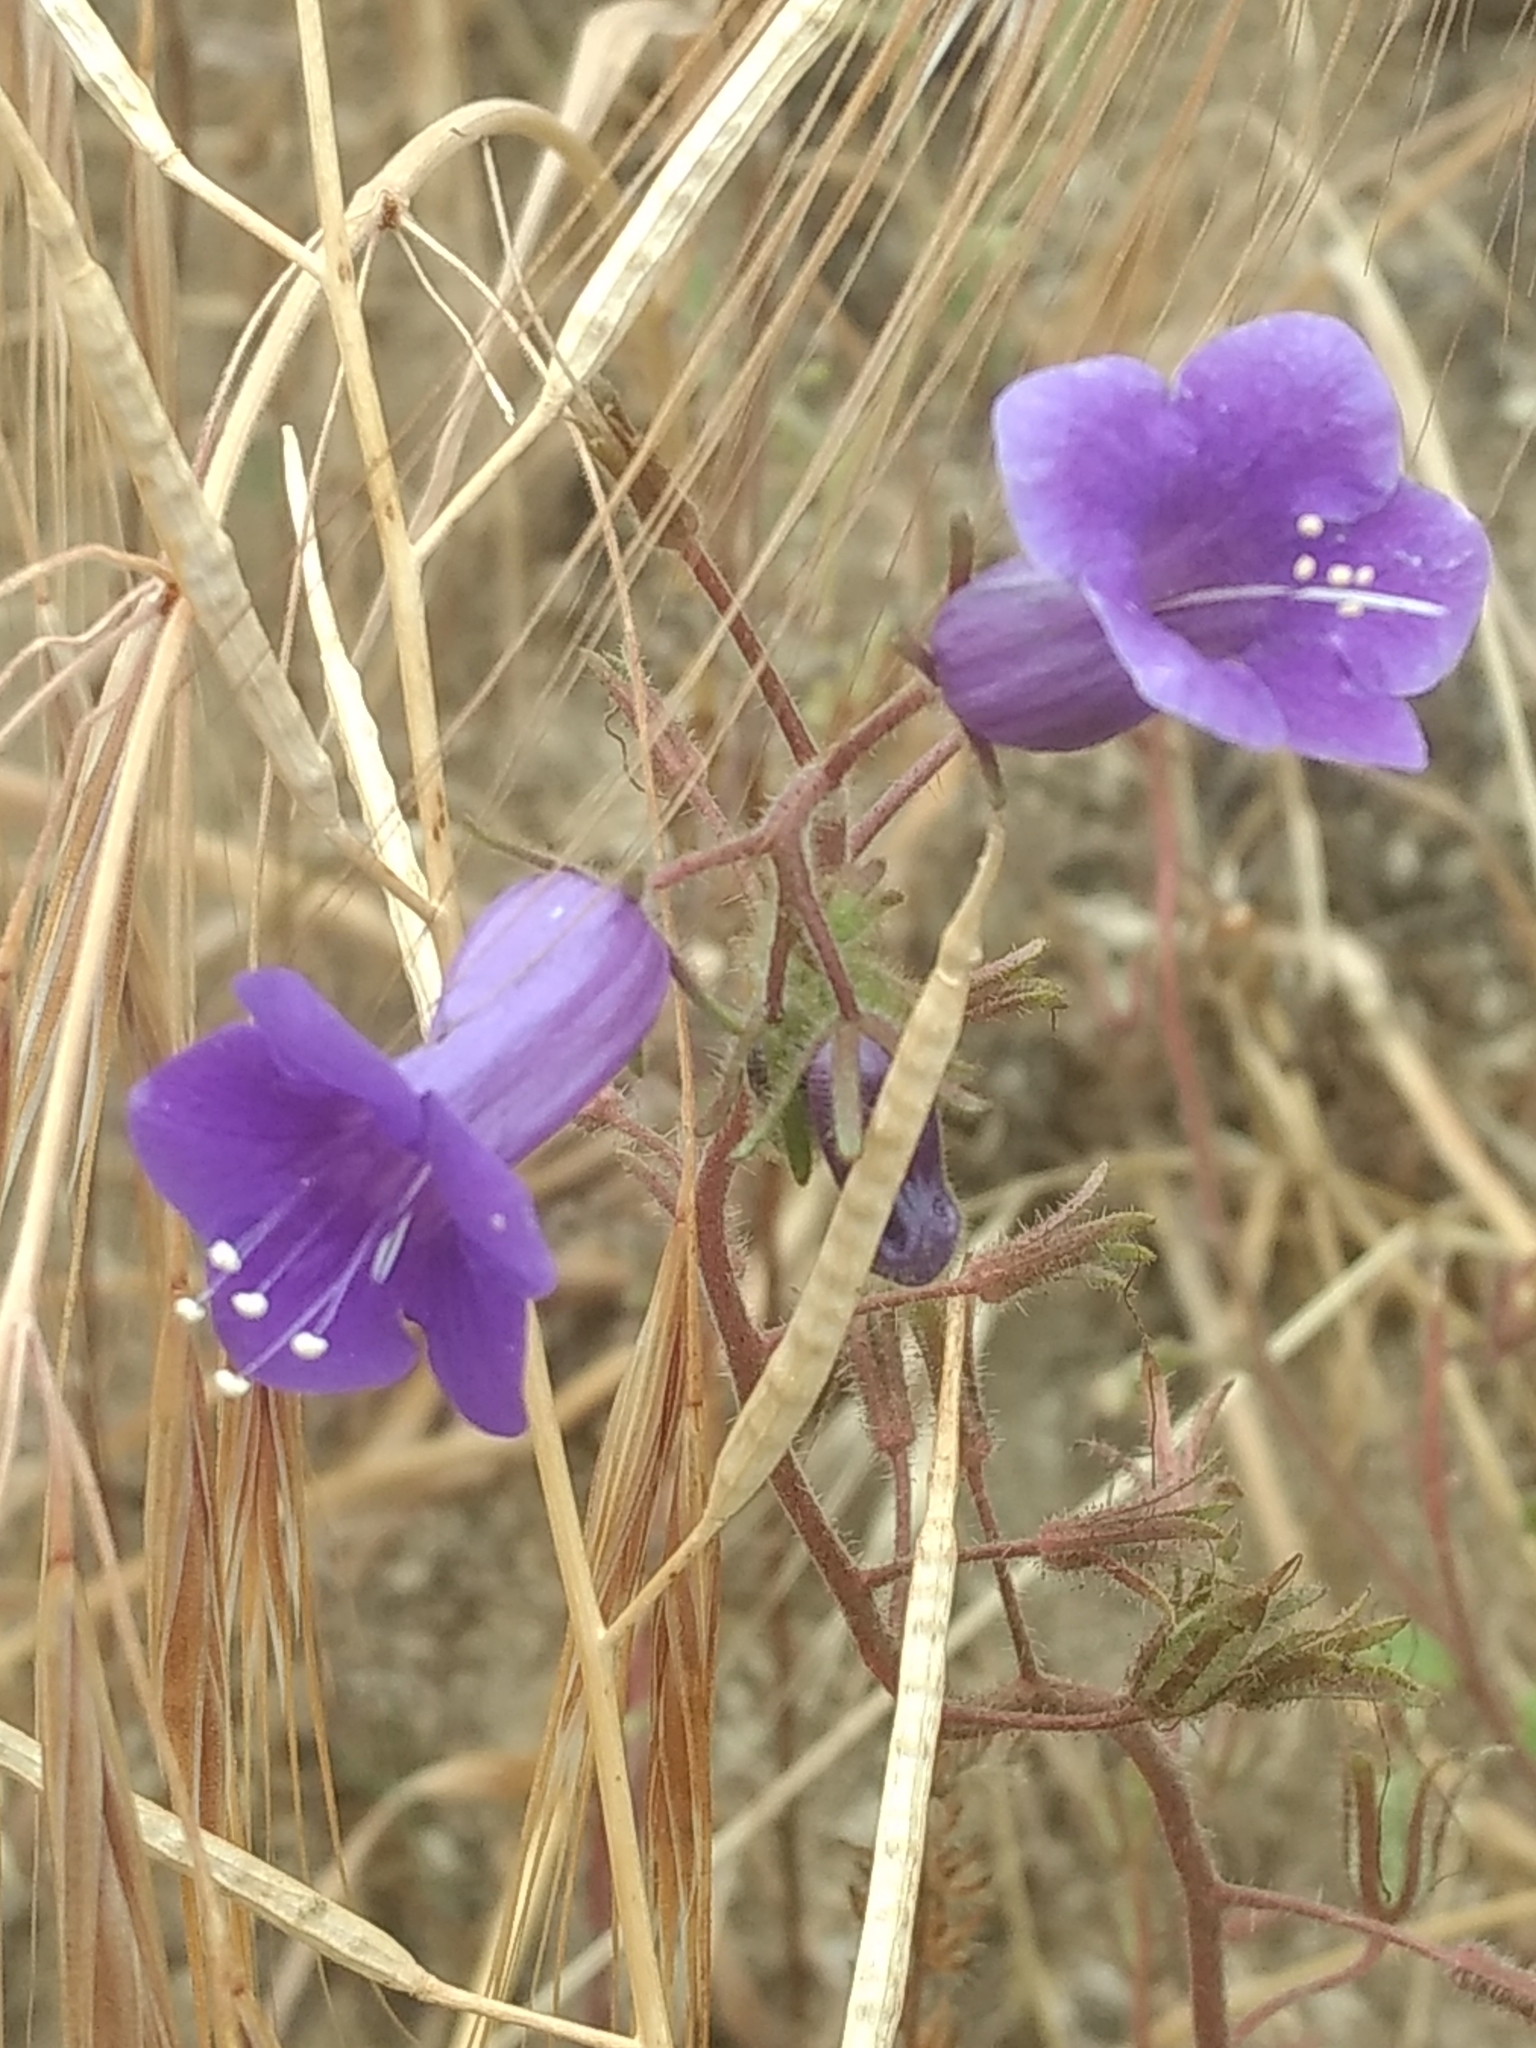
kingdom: Plantae
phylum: Tracheophyta
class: Magnoliopsida
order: Boraginales
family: Hydrophyllaceae
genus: Phacelia
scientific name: Phacelia minor
